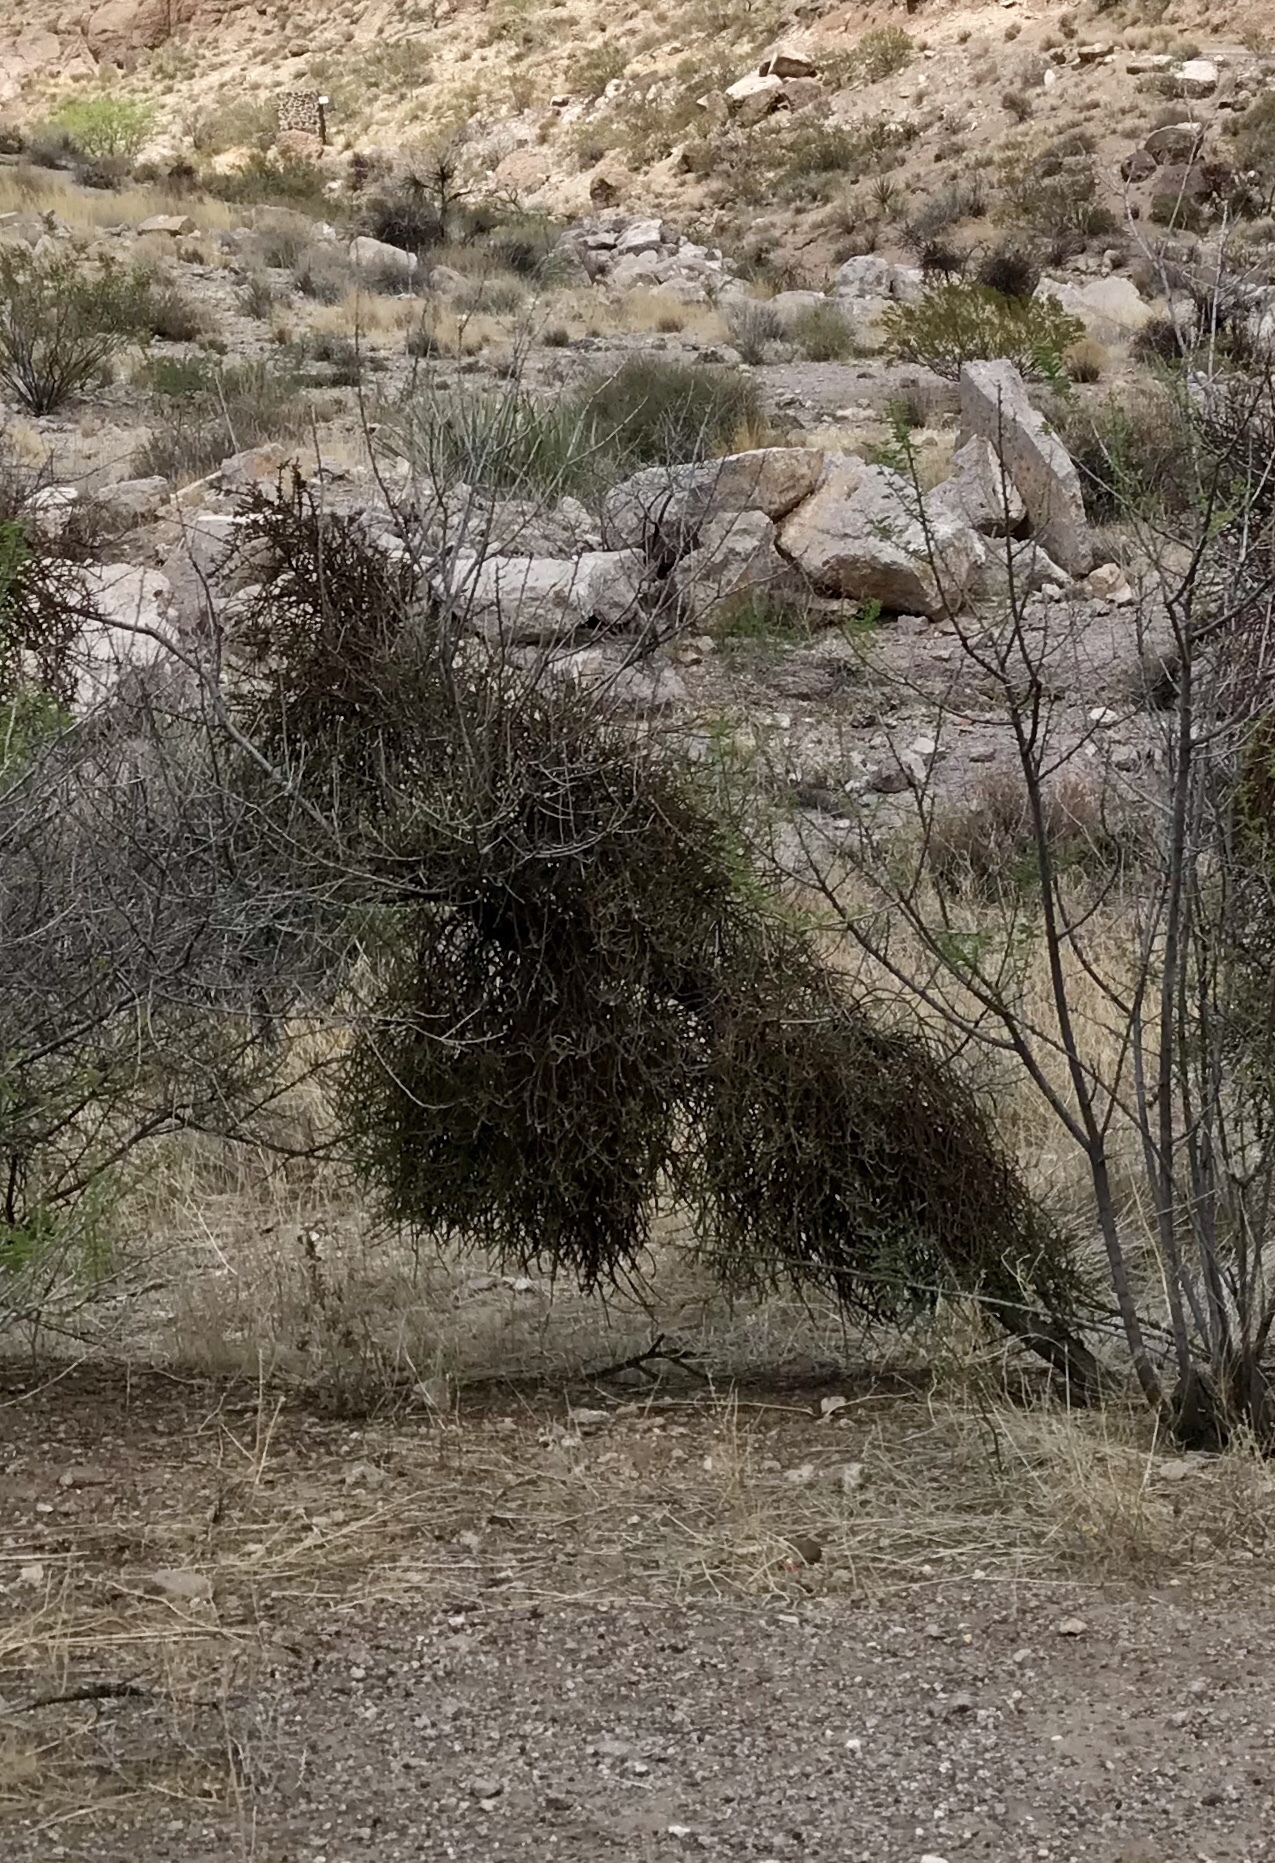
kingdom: Plantae
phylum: Tracheophyta
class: Magnoliopsida
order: Santalales
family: Viscaceae
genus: Phoradendron
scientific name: Phoradendron californicum
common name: Acacia mistletoe
